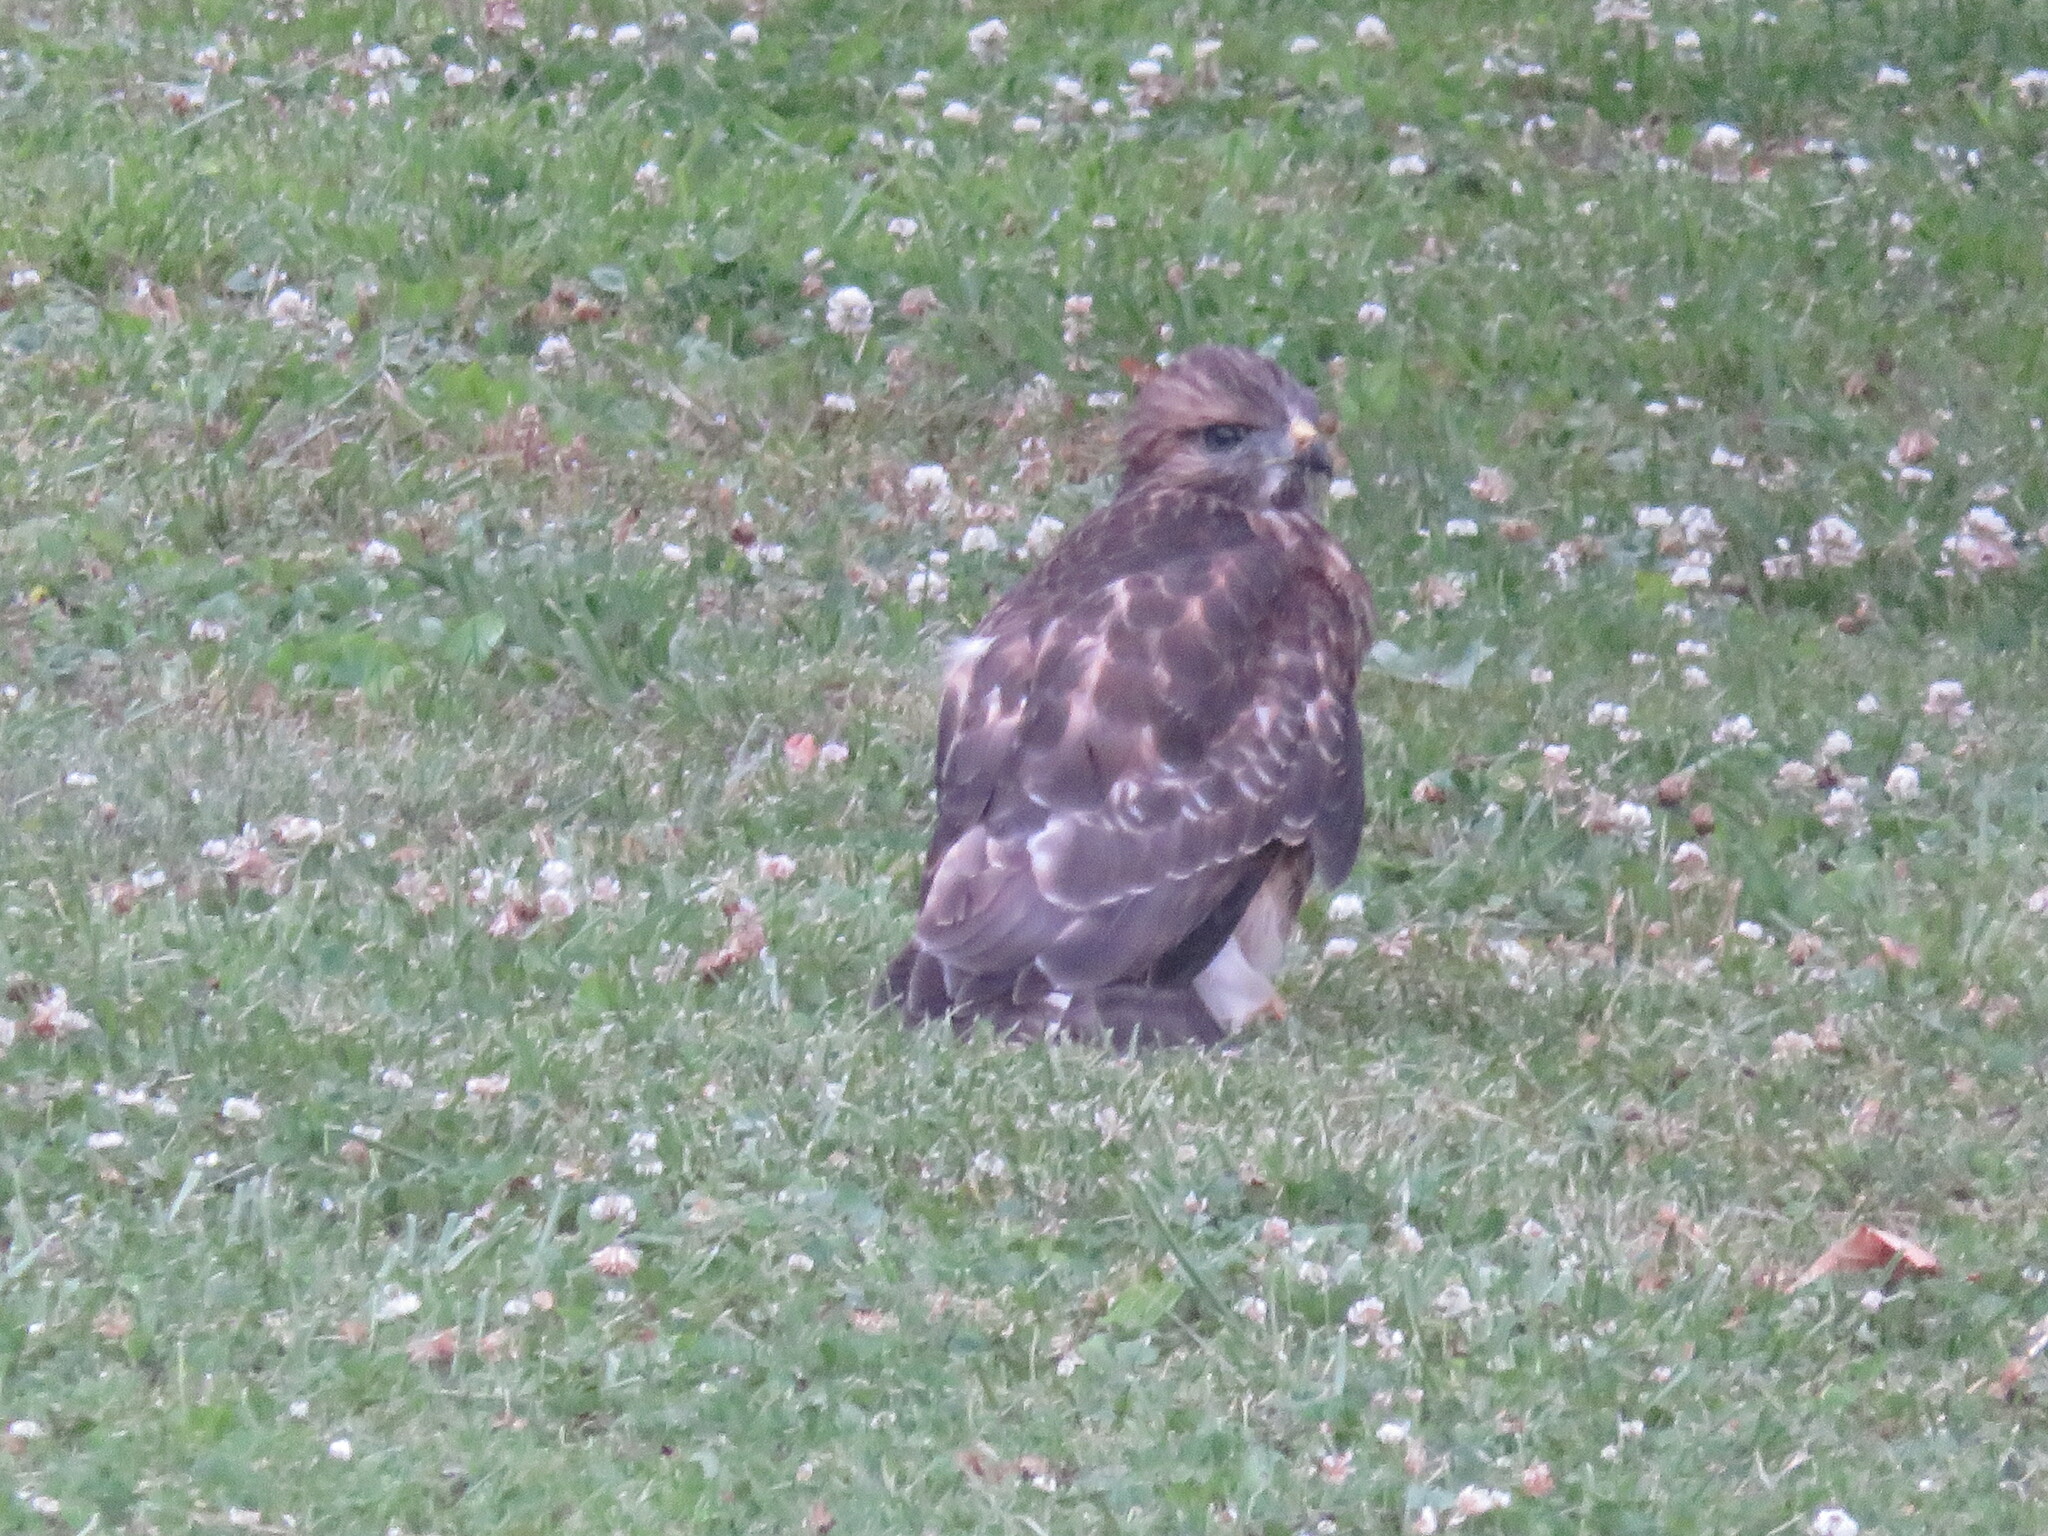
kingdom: Animalia
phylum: Chordata
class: Aves
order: Accipitriformes
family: Accipitridae
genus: Buteo
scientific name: Buteo jamaicensis
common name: Red-tailed hawk
